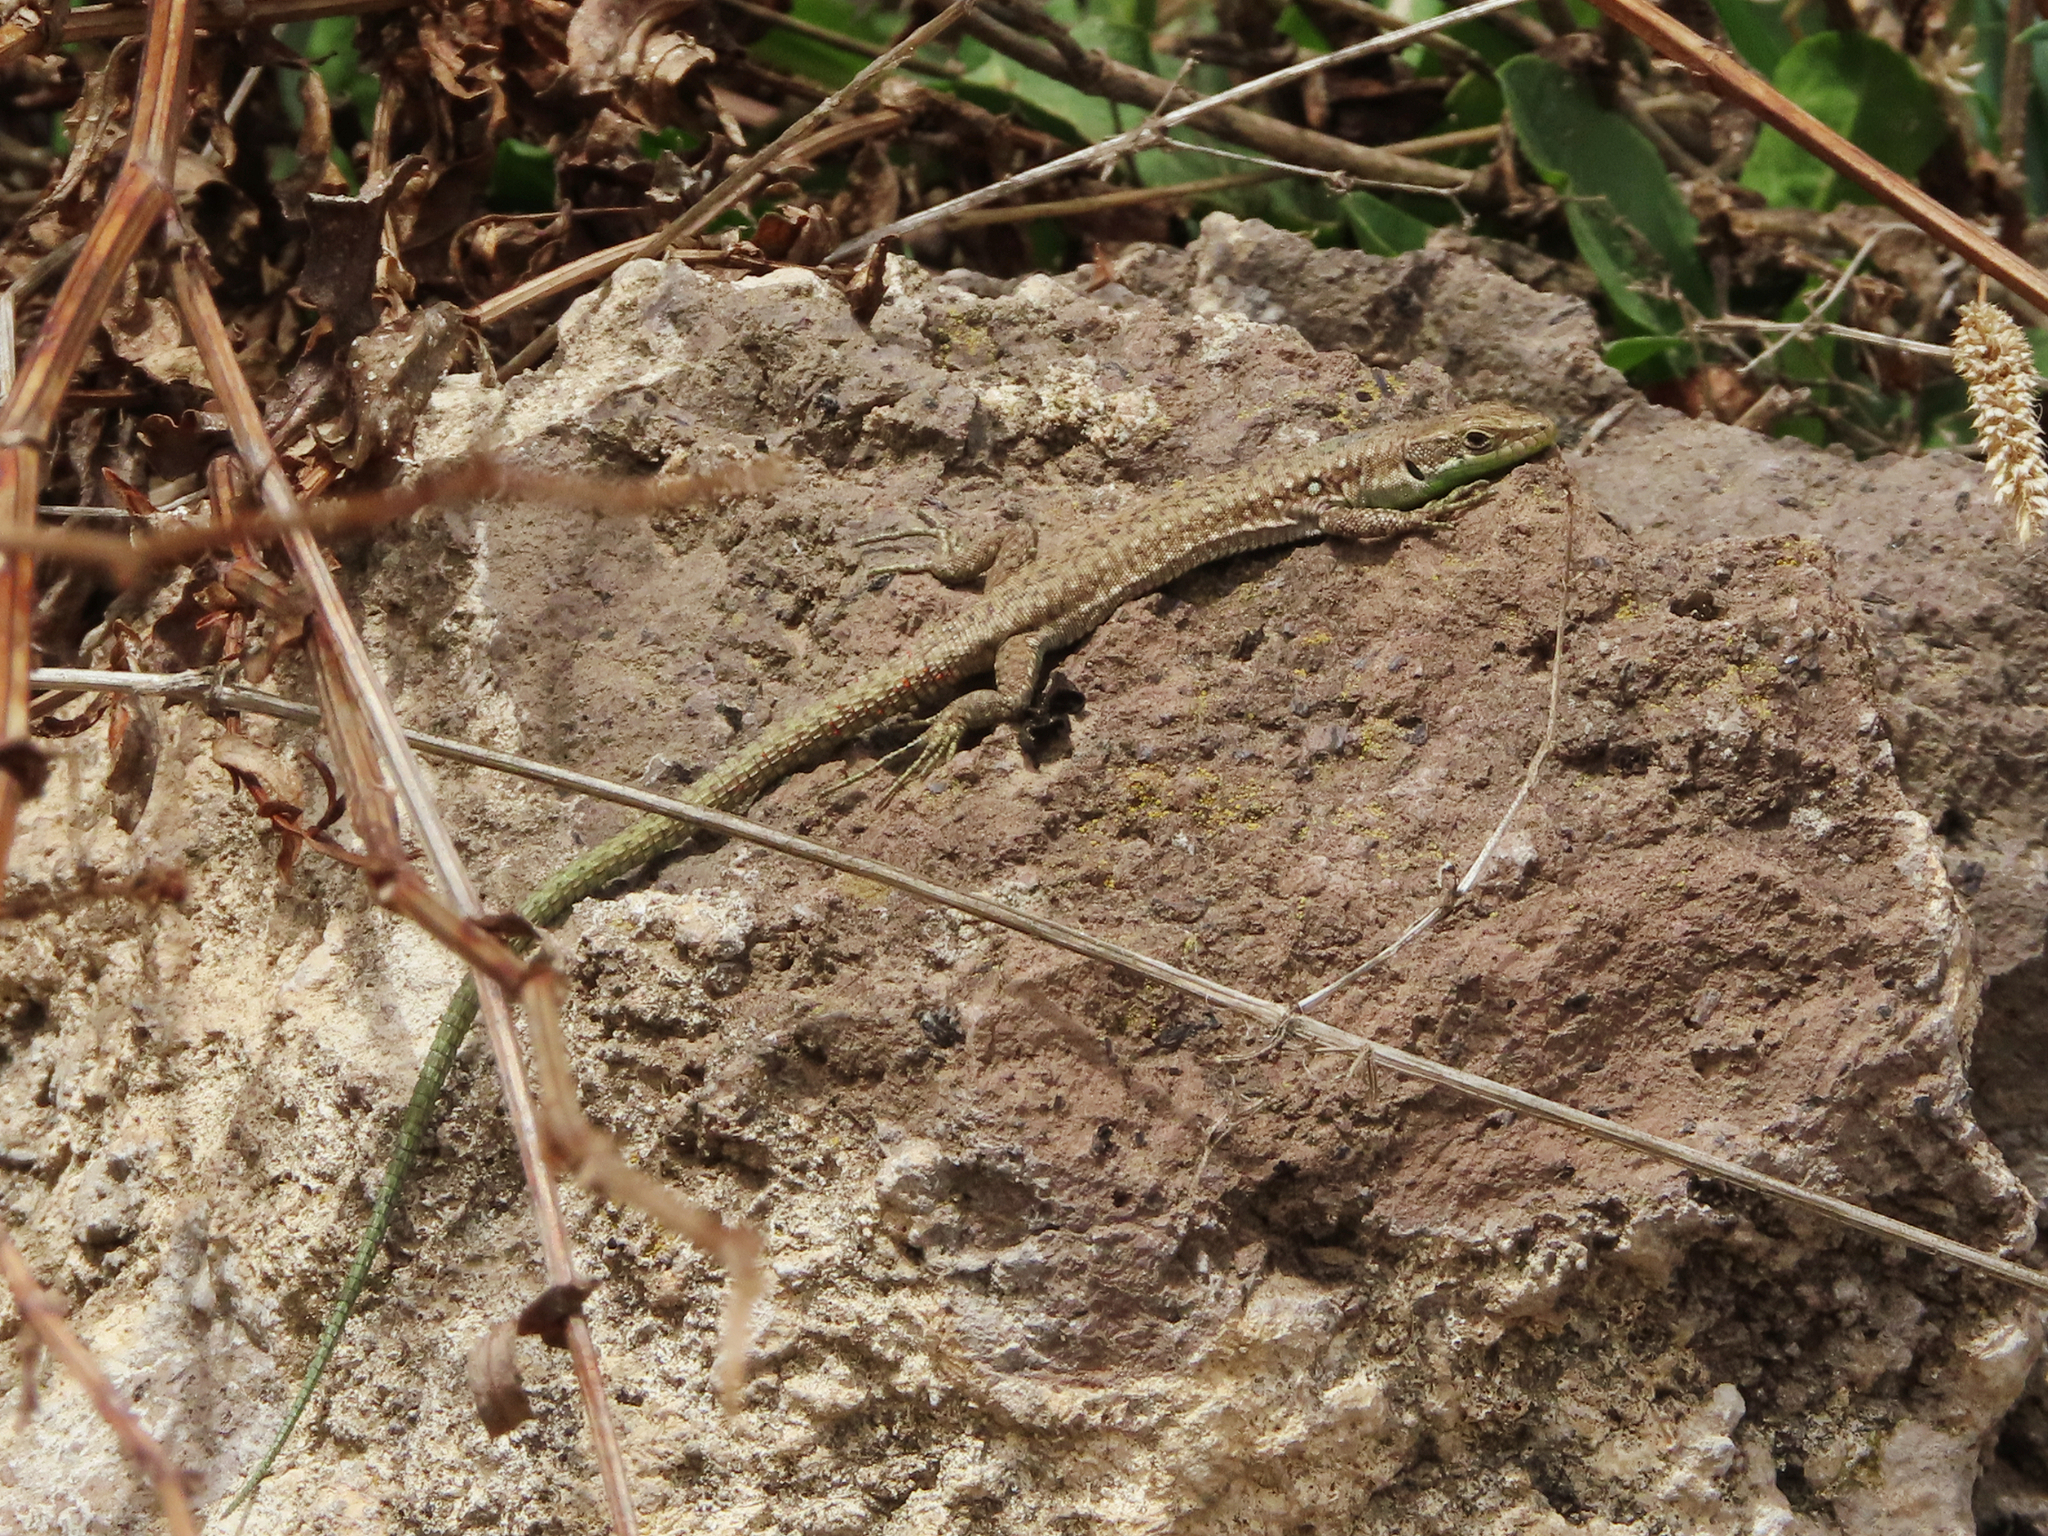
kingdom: Animalia
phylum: Chordata
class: Squamata
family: Lacertidae
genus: Darevskia
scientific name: Darevskia raddei
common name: Radde's lizard
